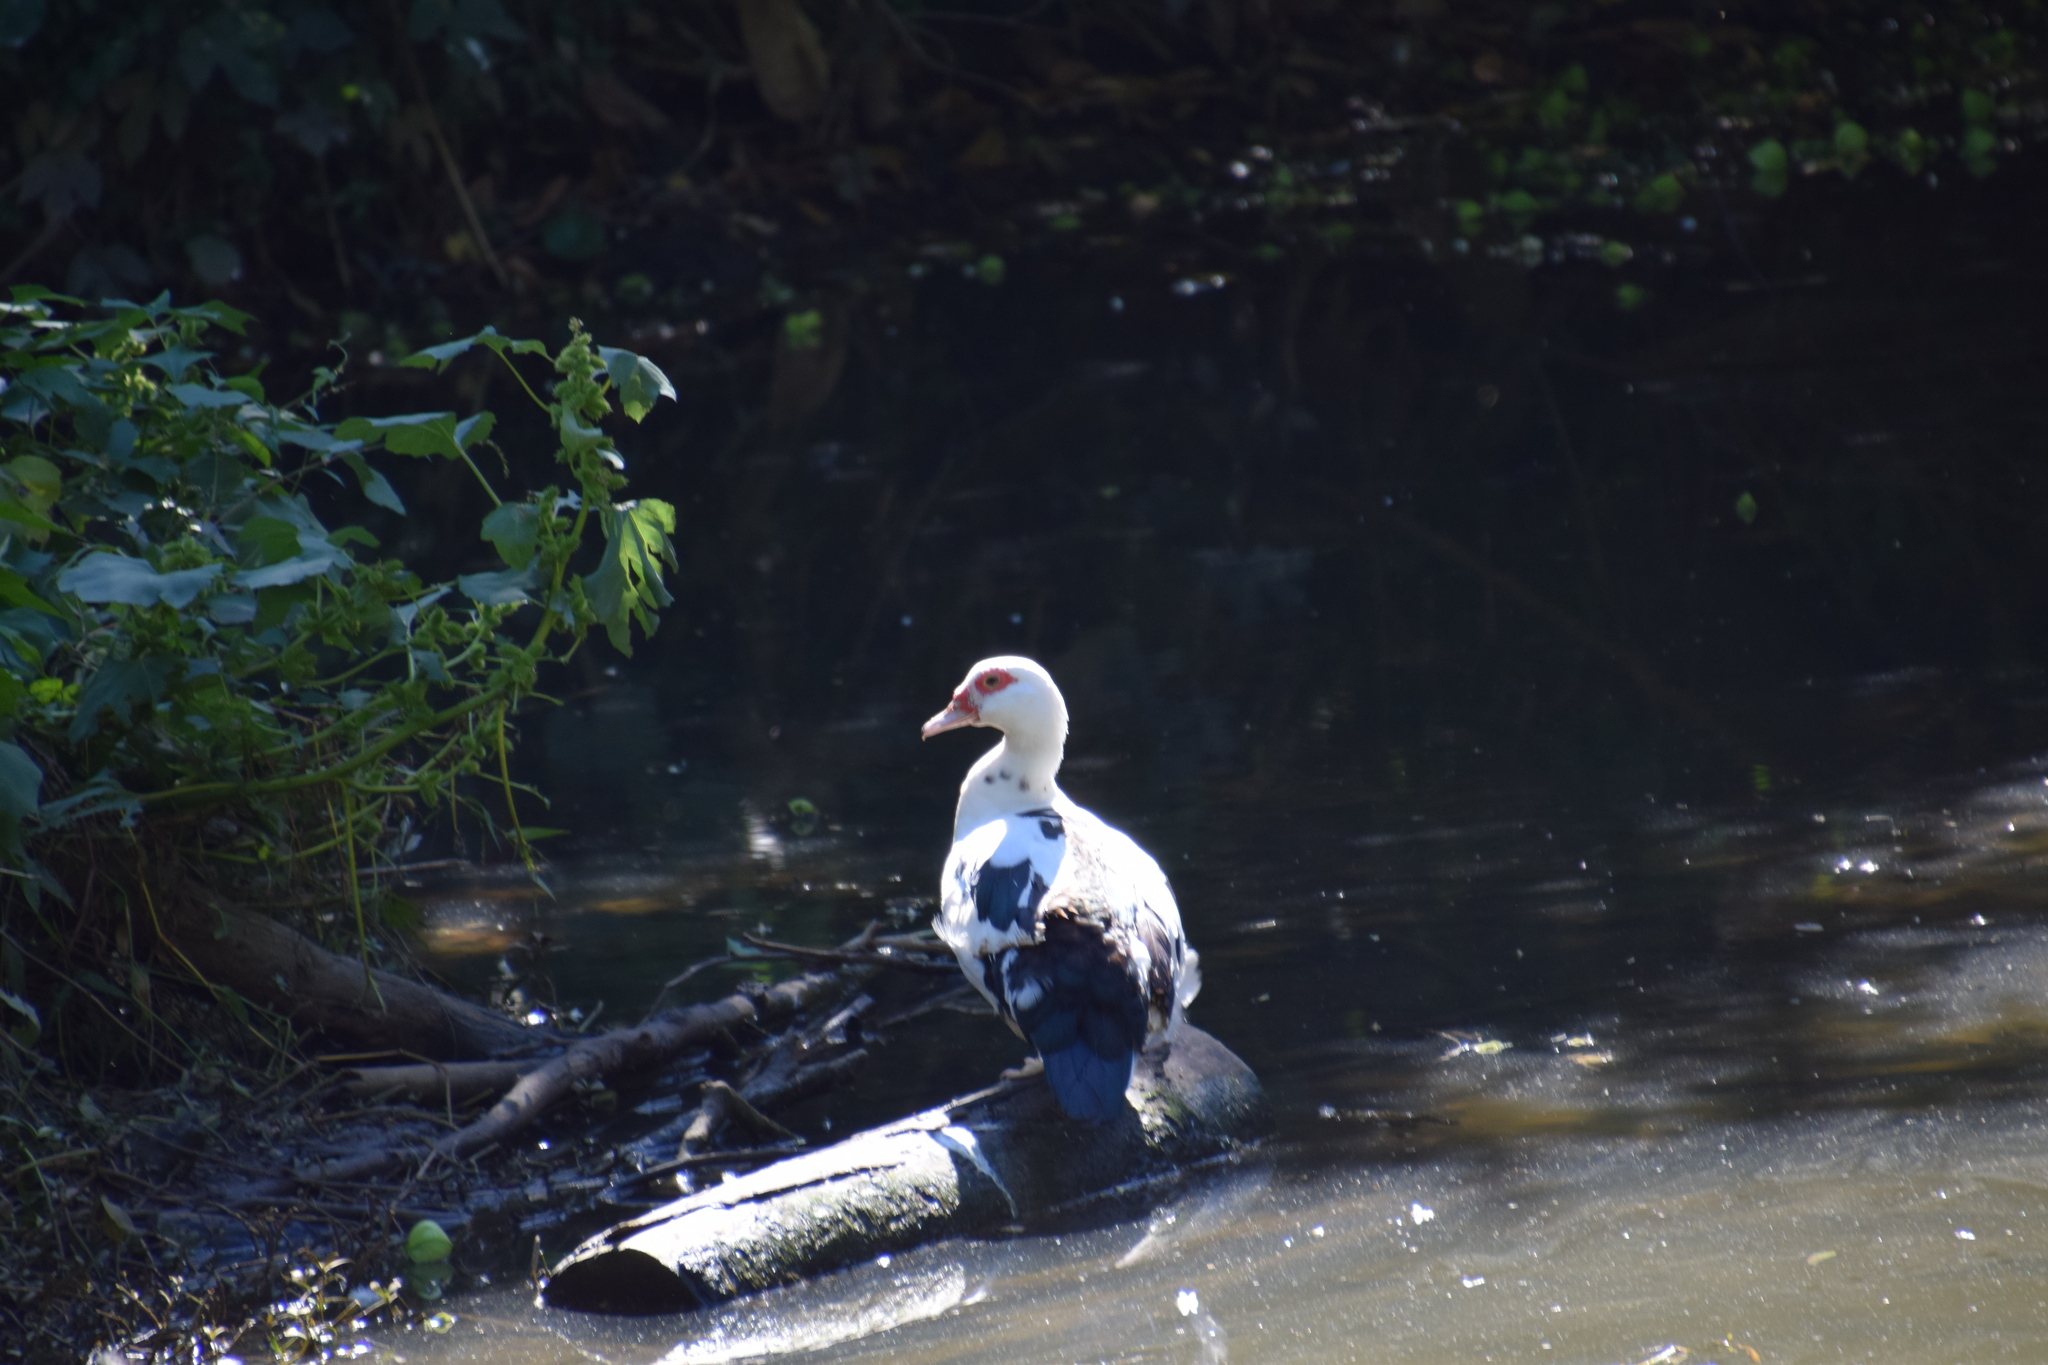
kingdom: Animalia
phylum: Chordata
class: Aves
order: Anseriformes
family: Anatidae
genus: Cairina
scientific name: Cairina moschata
